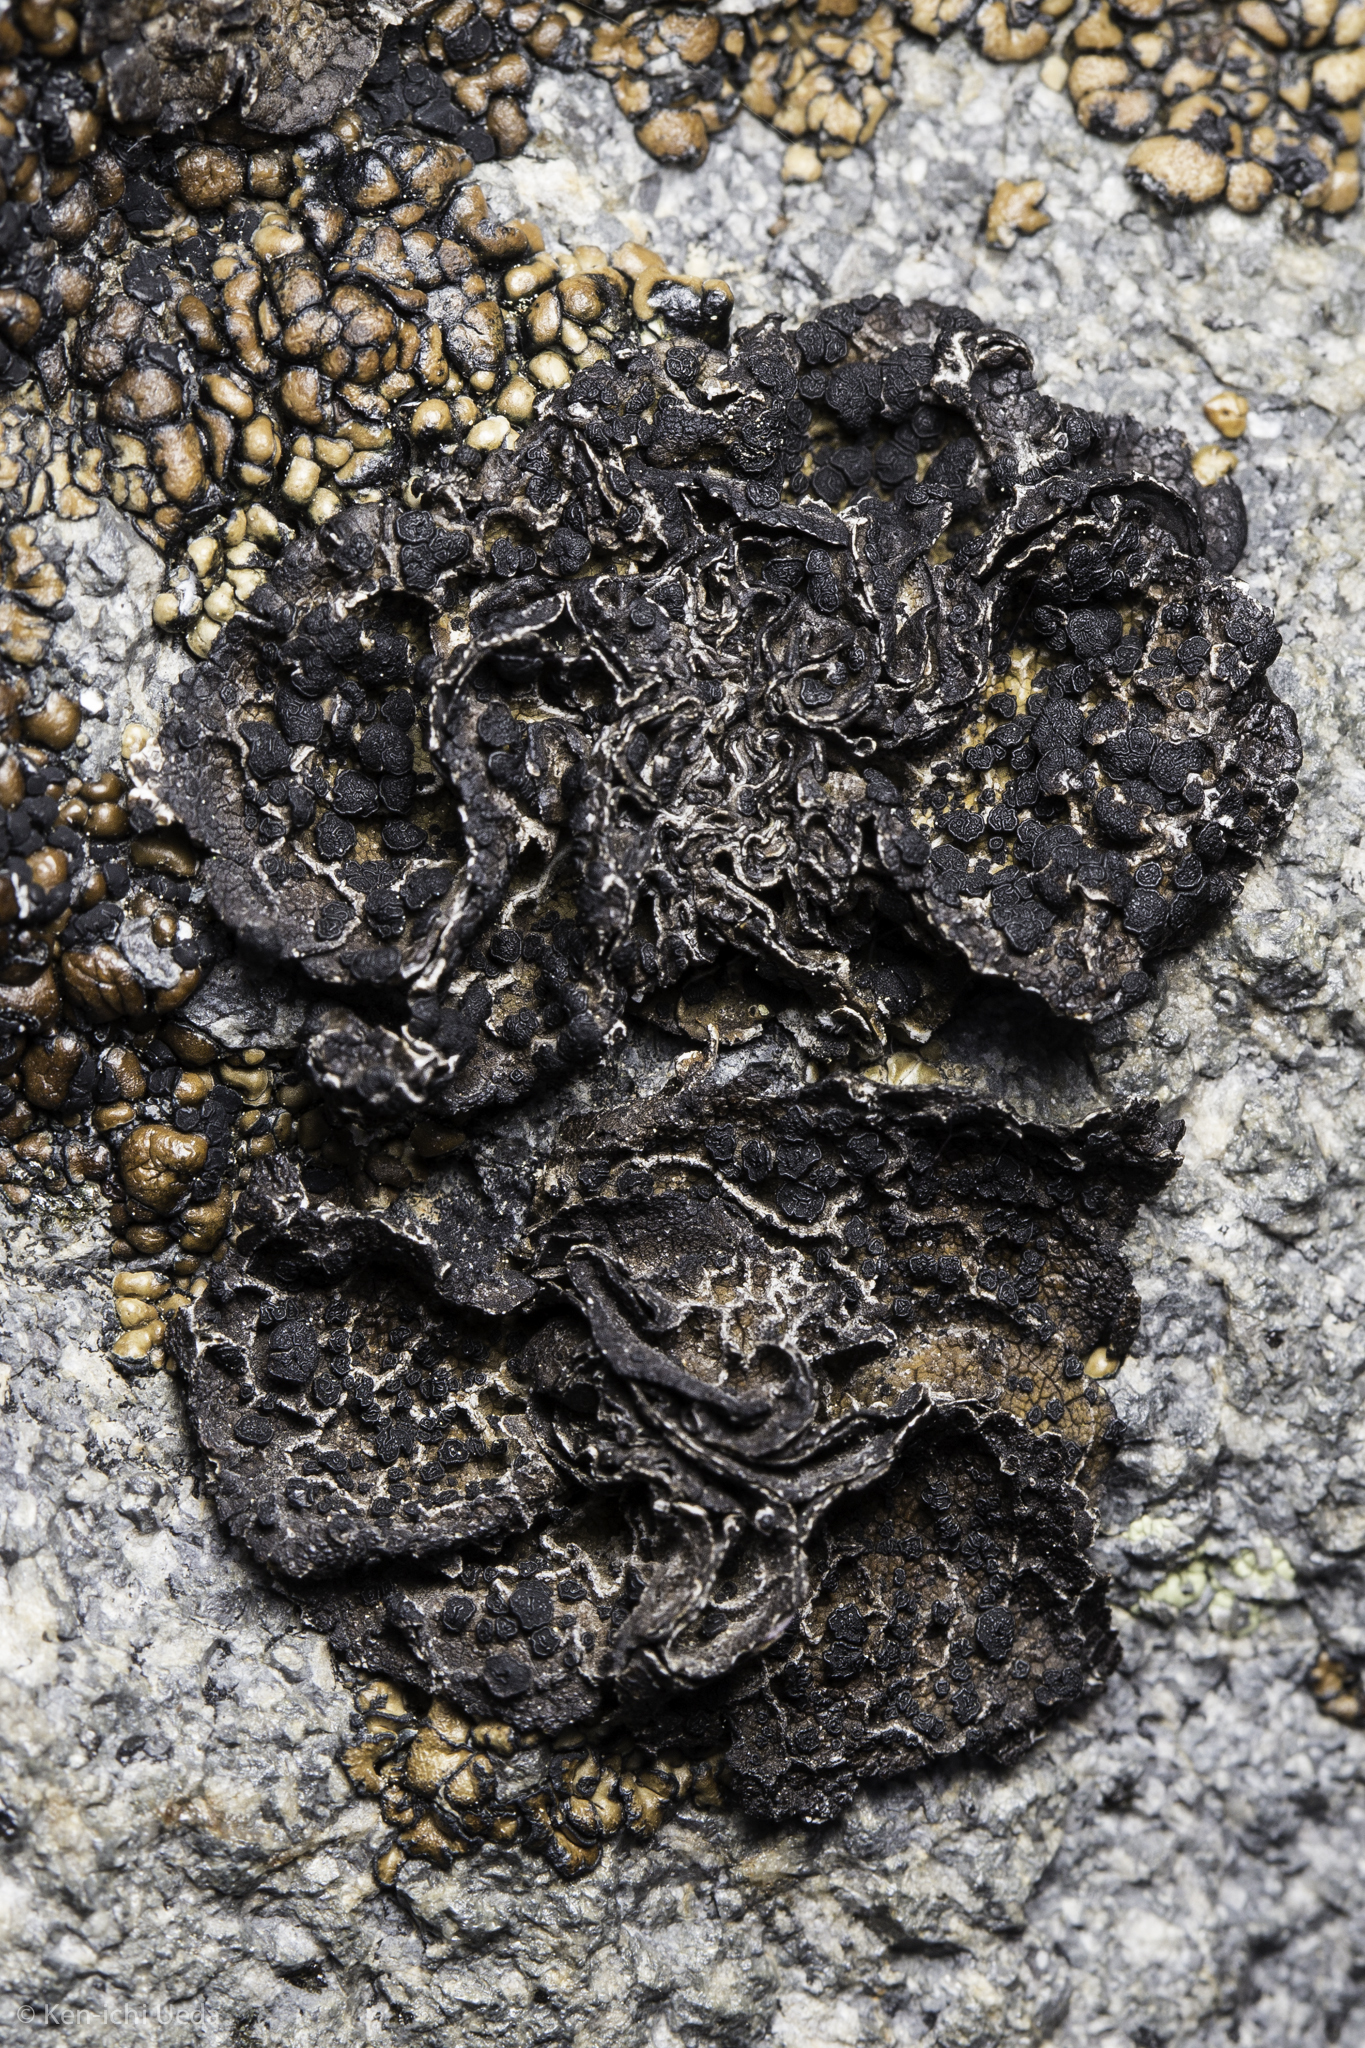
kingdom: Fungi
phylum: Ascomycota
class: Lecanoromycetes
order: Umbilicariales
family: Umbilicariaceae
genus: Umbilicaria
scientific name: Umbilicaria polaris
